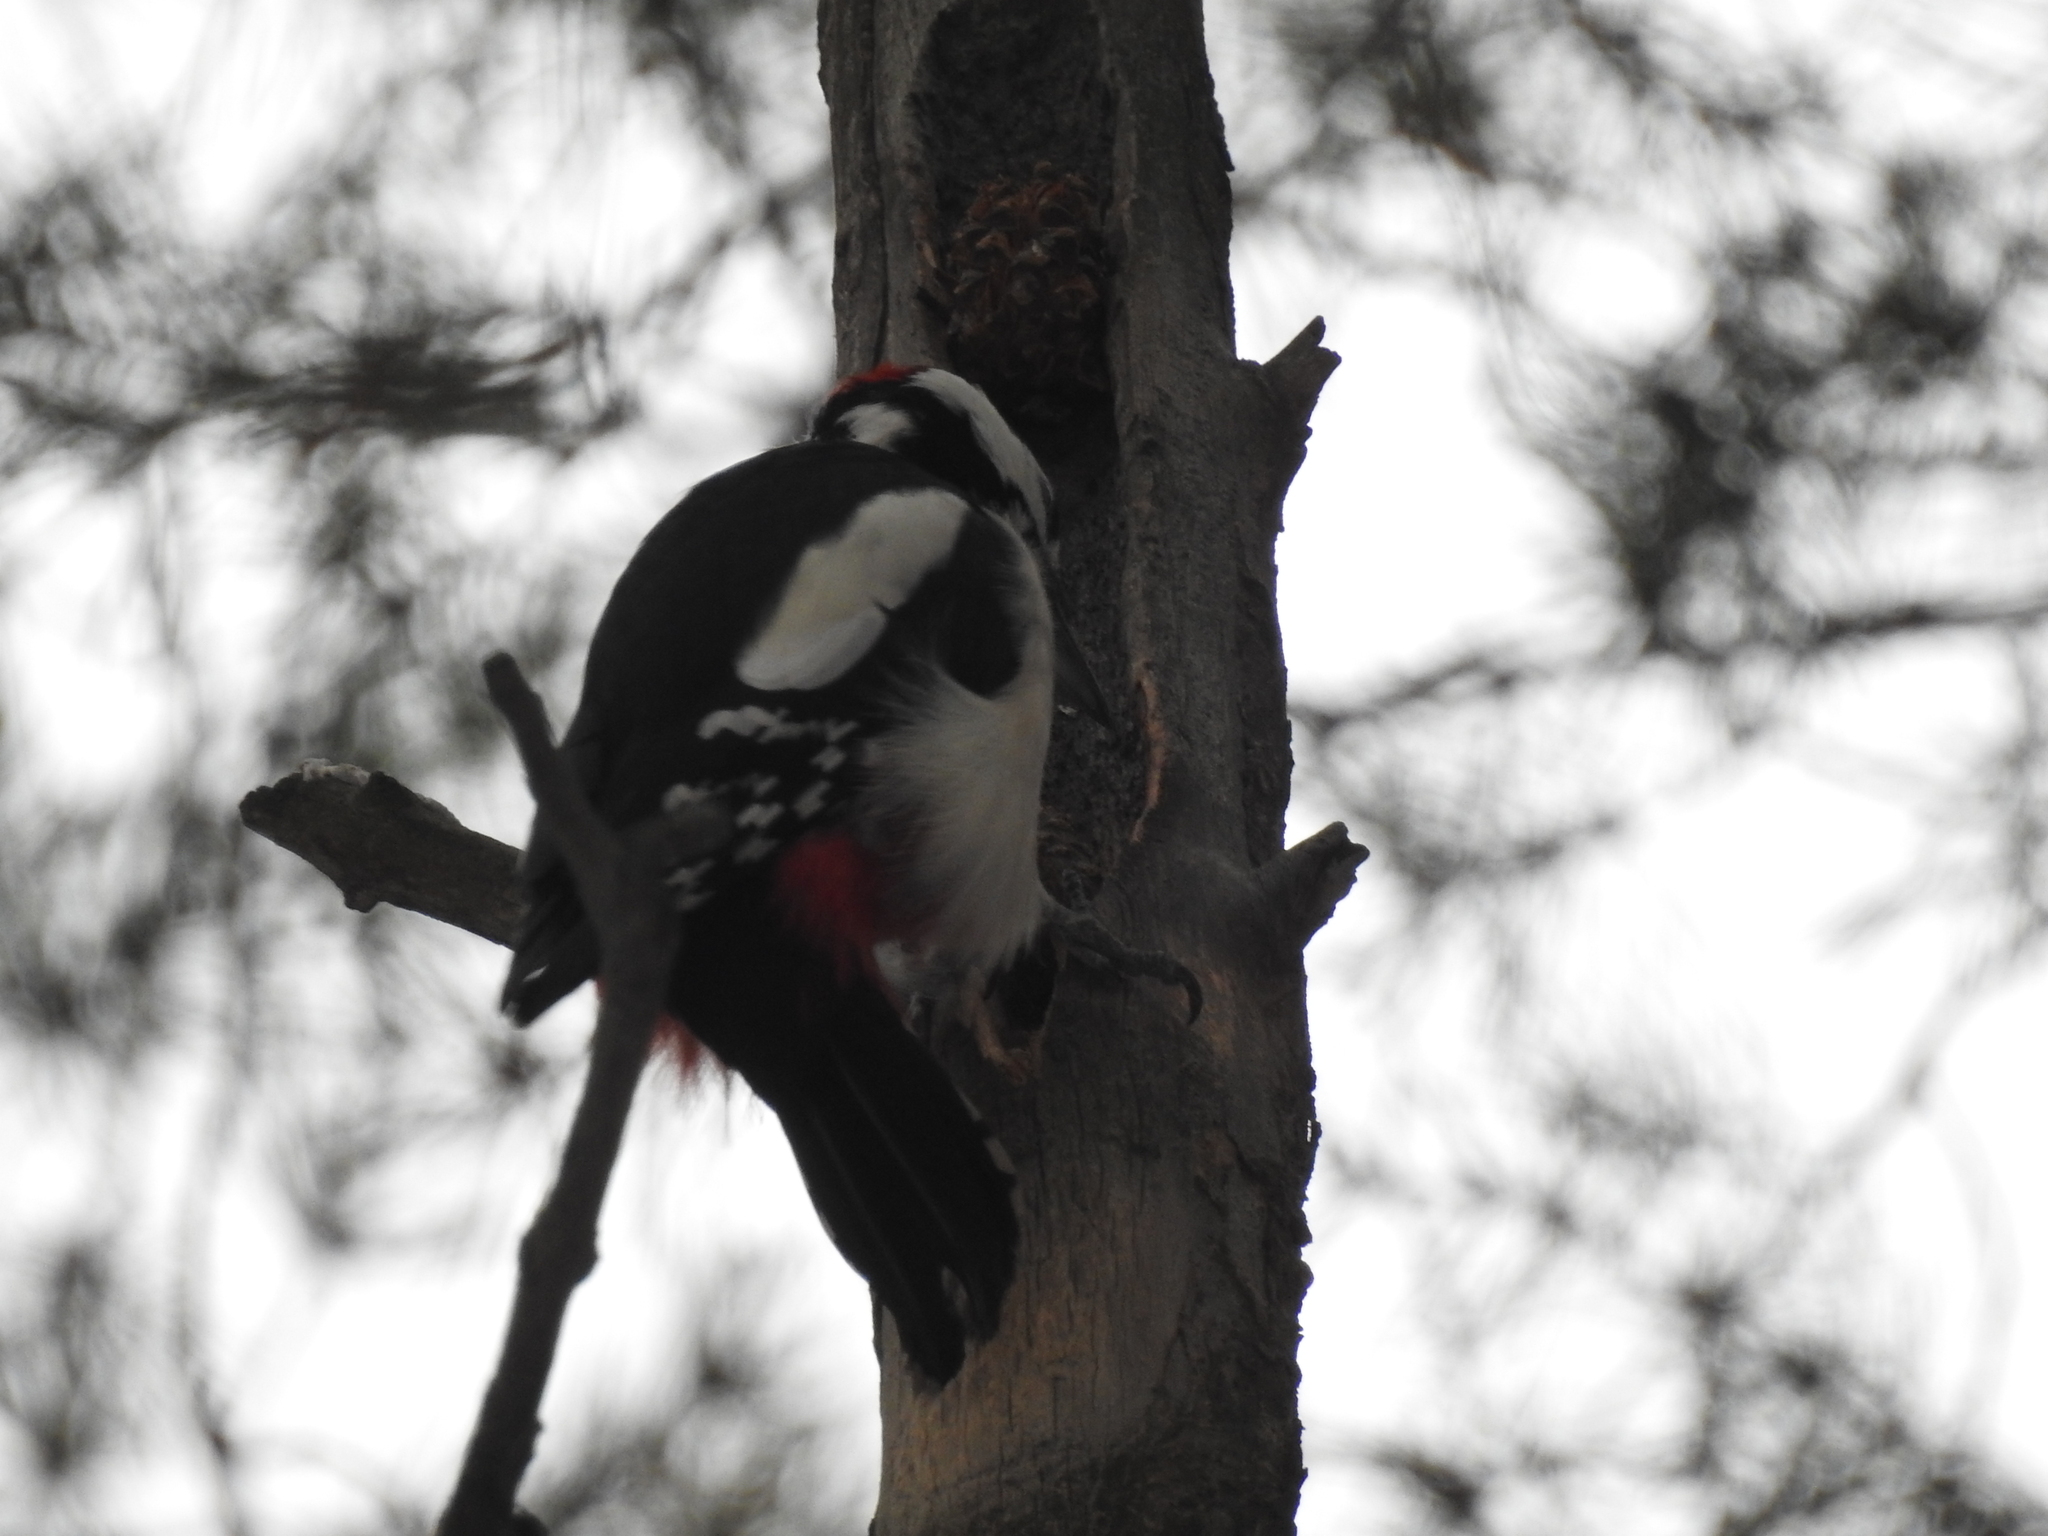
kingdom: Animalia
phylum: Chordata
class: Aves
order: Piciformes
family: Picidae
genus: Dendrocopos
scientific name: Dendrocopos major
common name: Great spotted woodpecker
